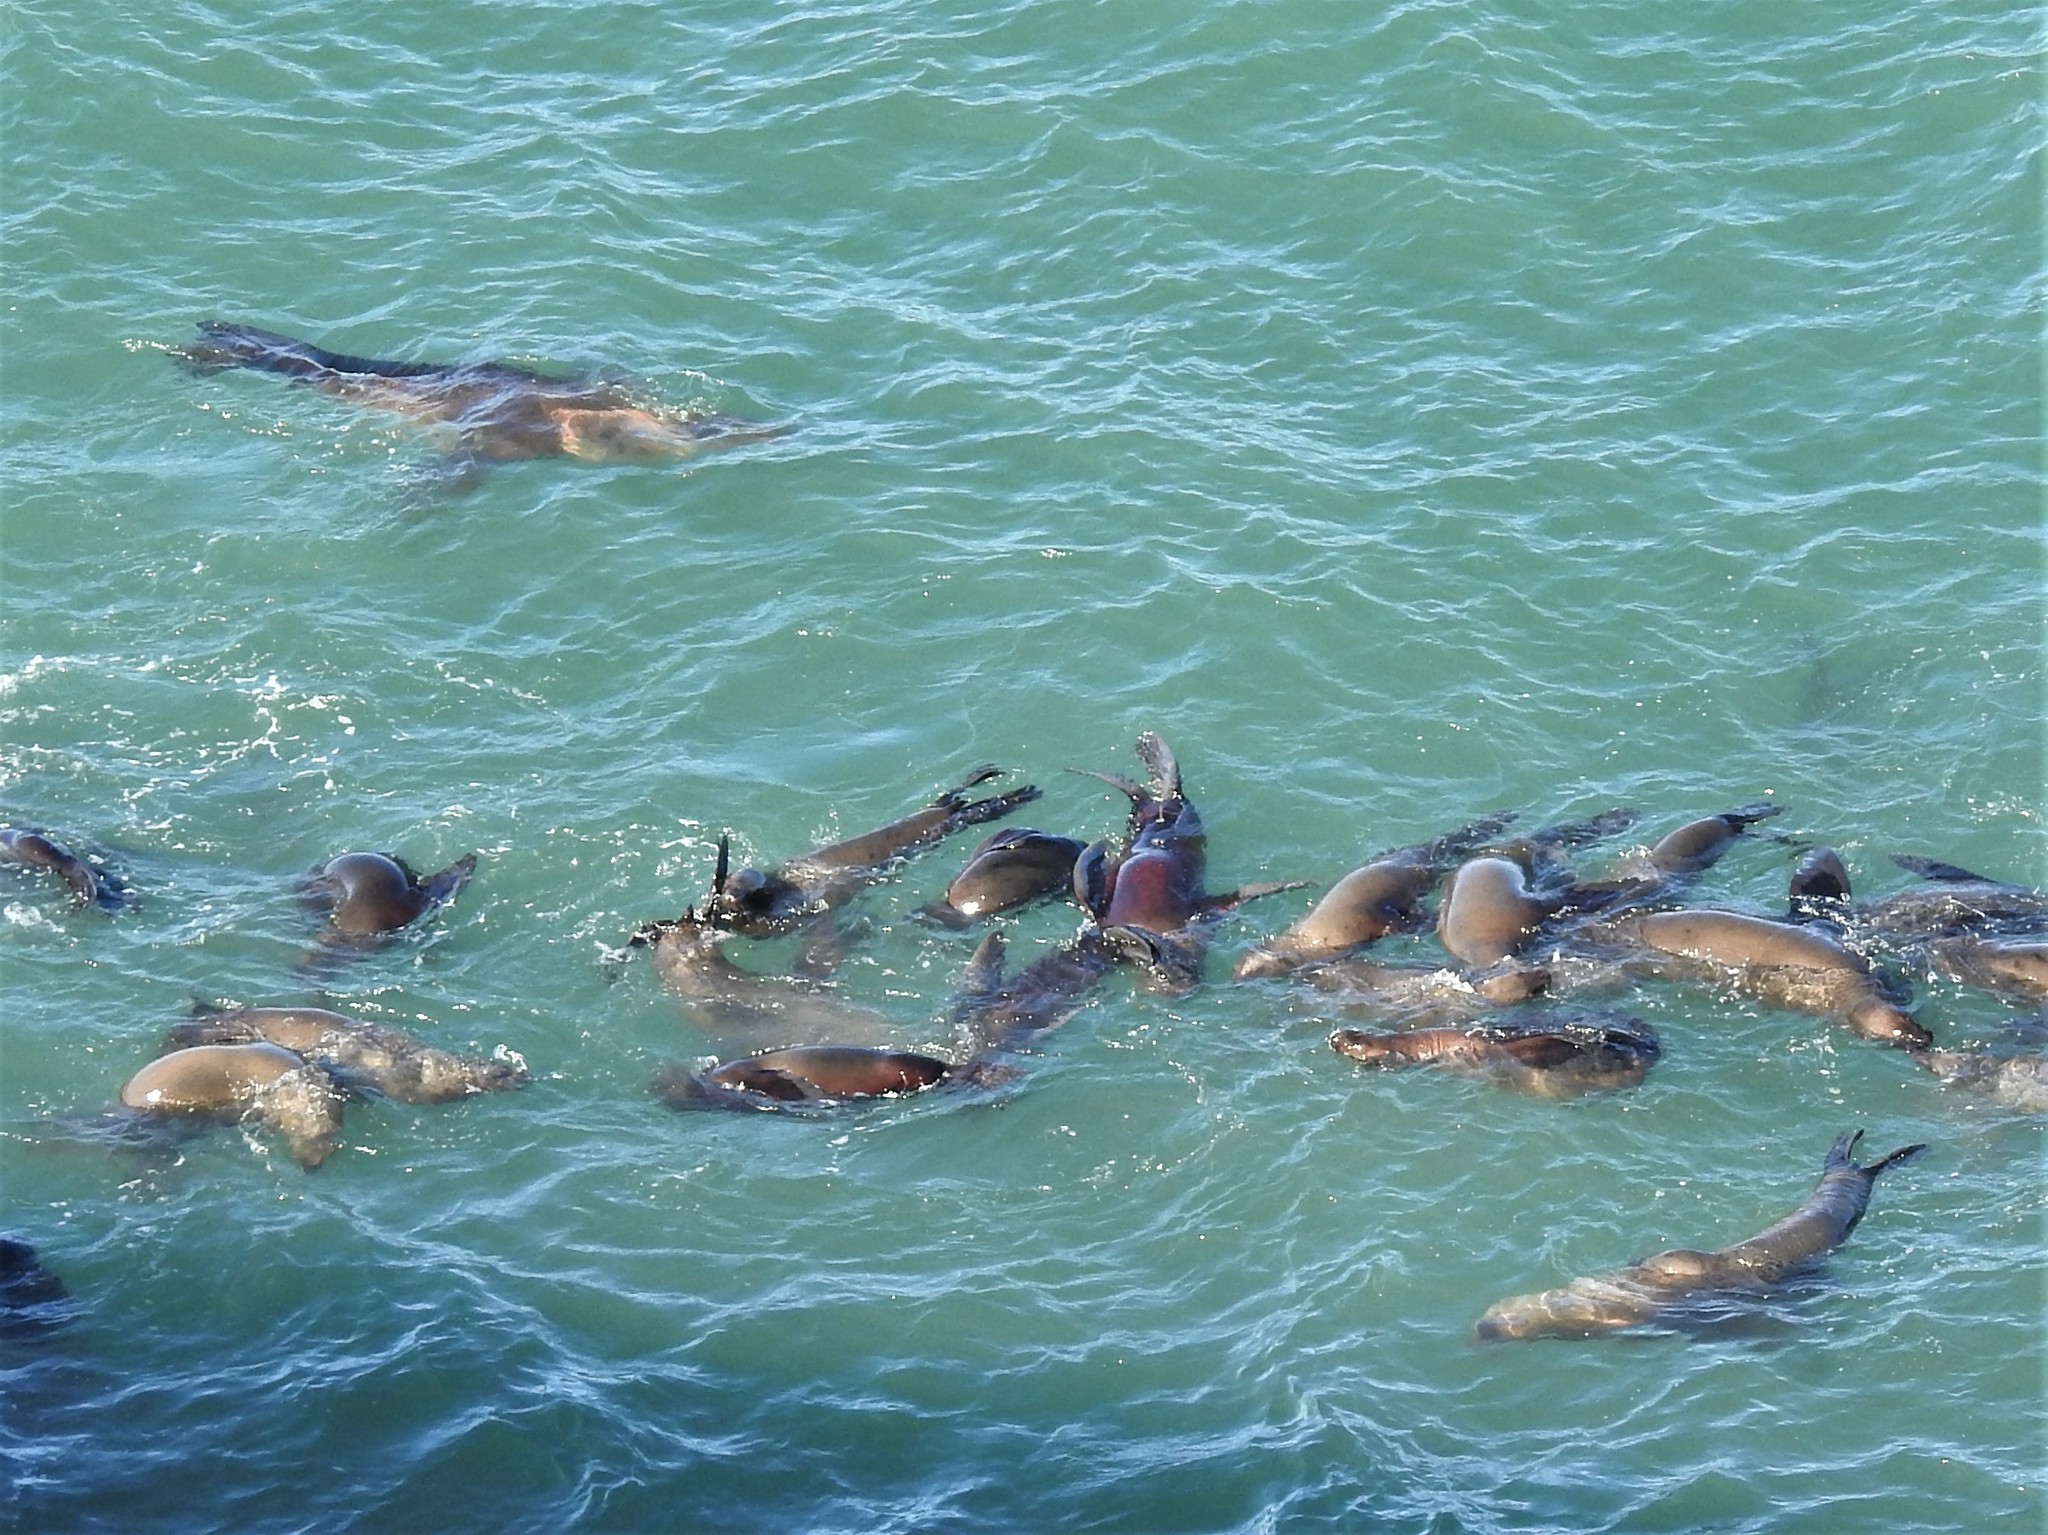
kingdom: Animalia
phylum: Chordata
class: Mammalia
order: Carnivora
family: Otariidae
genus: Zalophus
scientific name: Zalophus californianus
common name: California sea lion
